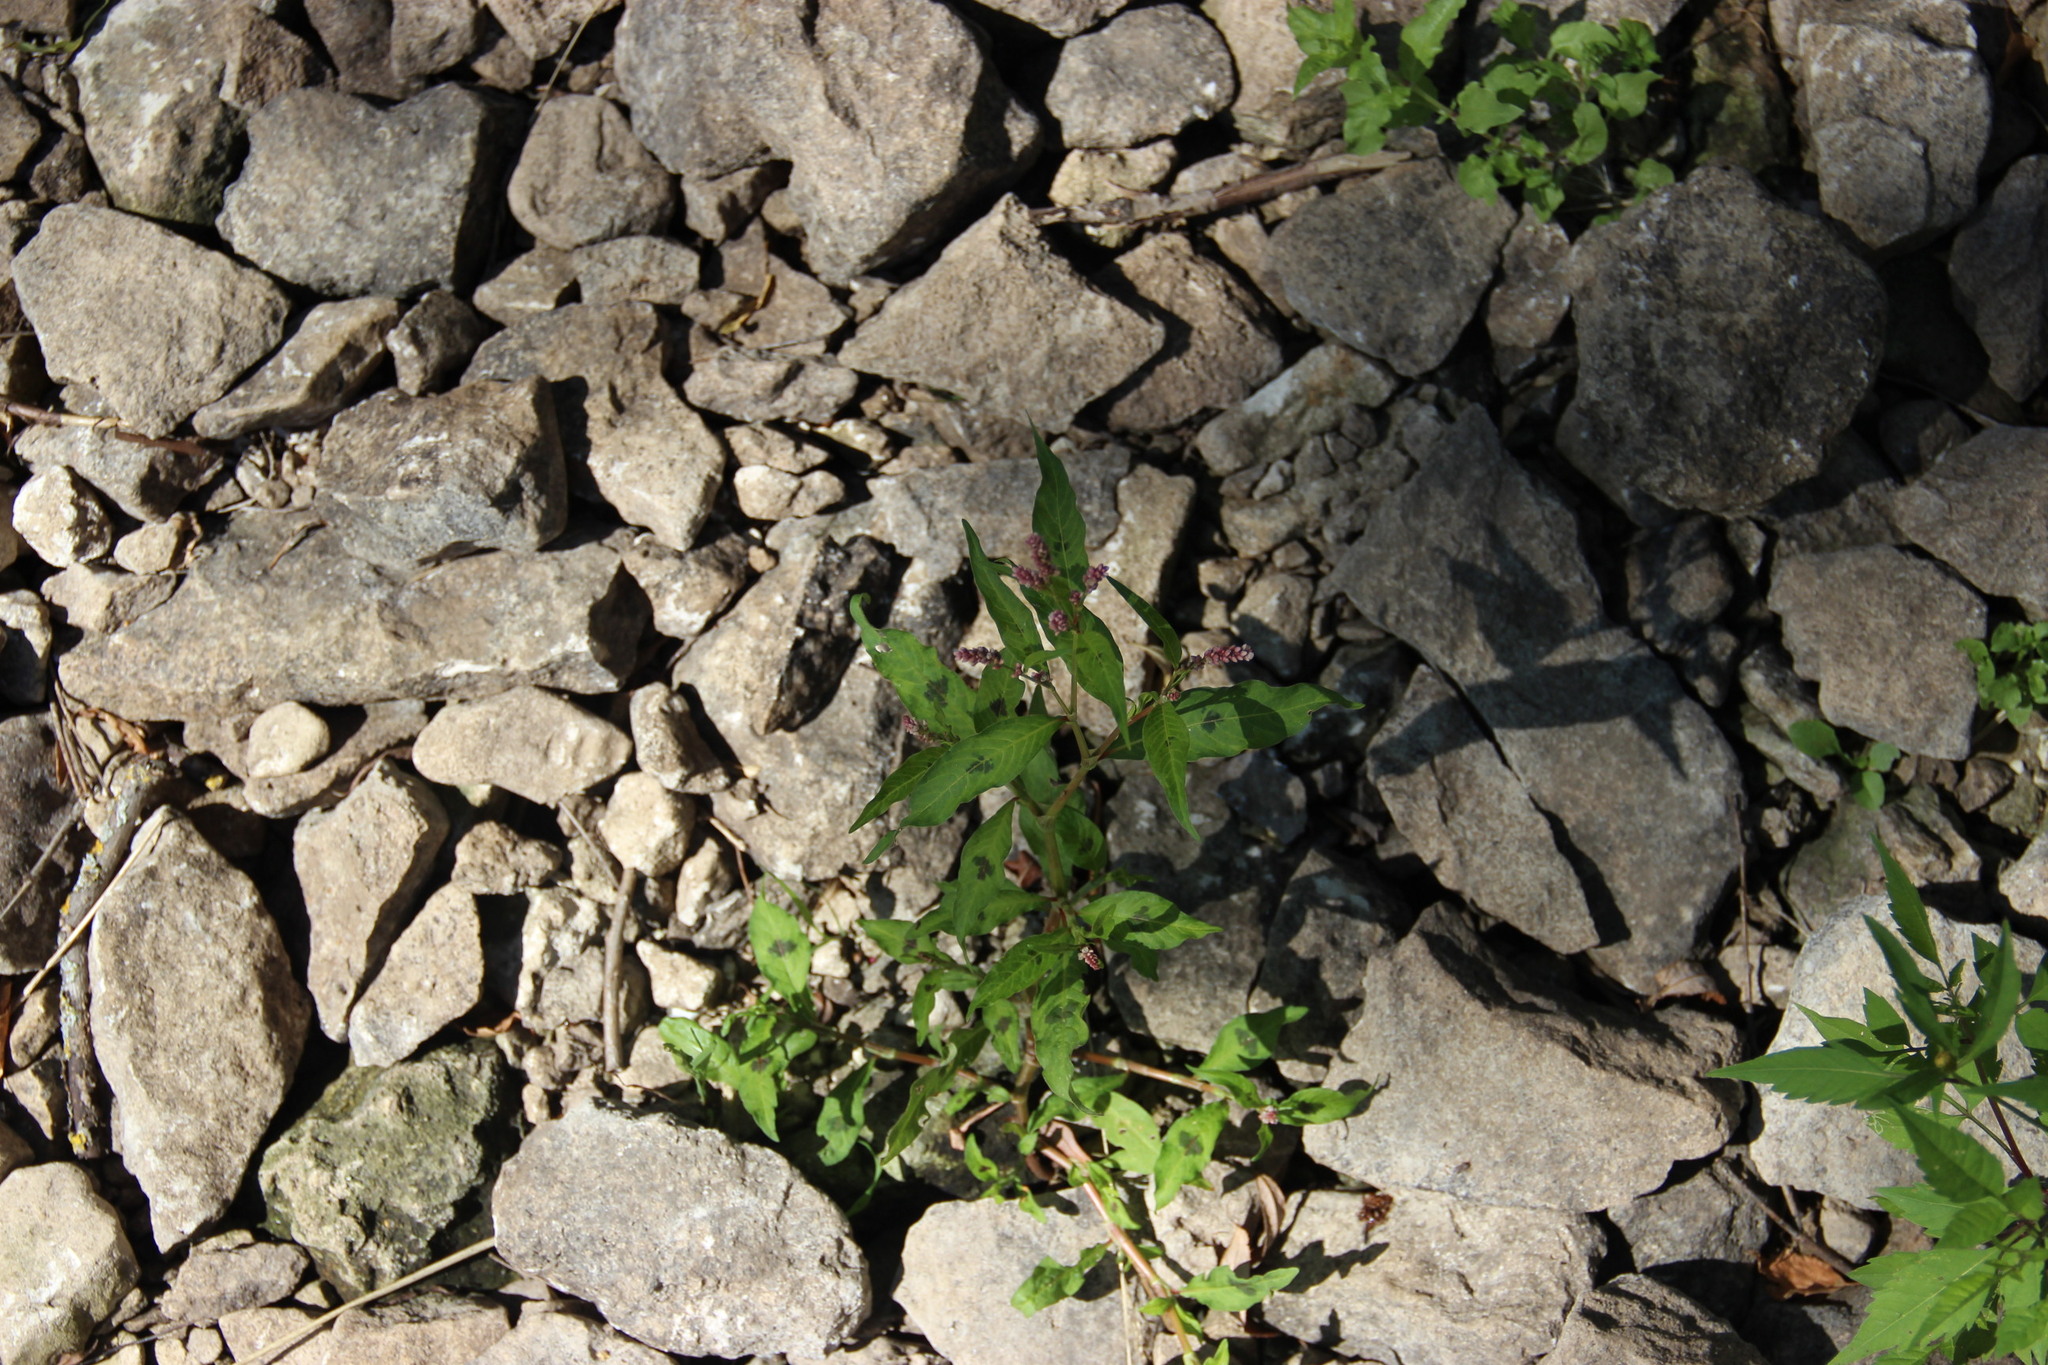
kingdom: Plantae
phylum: Tracheophyta
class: Magnoliopsida
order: Caryophyllales
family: Polygonaceae
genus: Persicaria
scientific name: Persicaria maculosa
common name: Redshank
